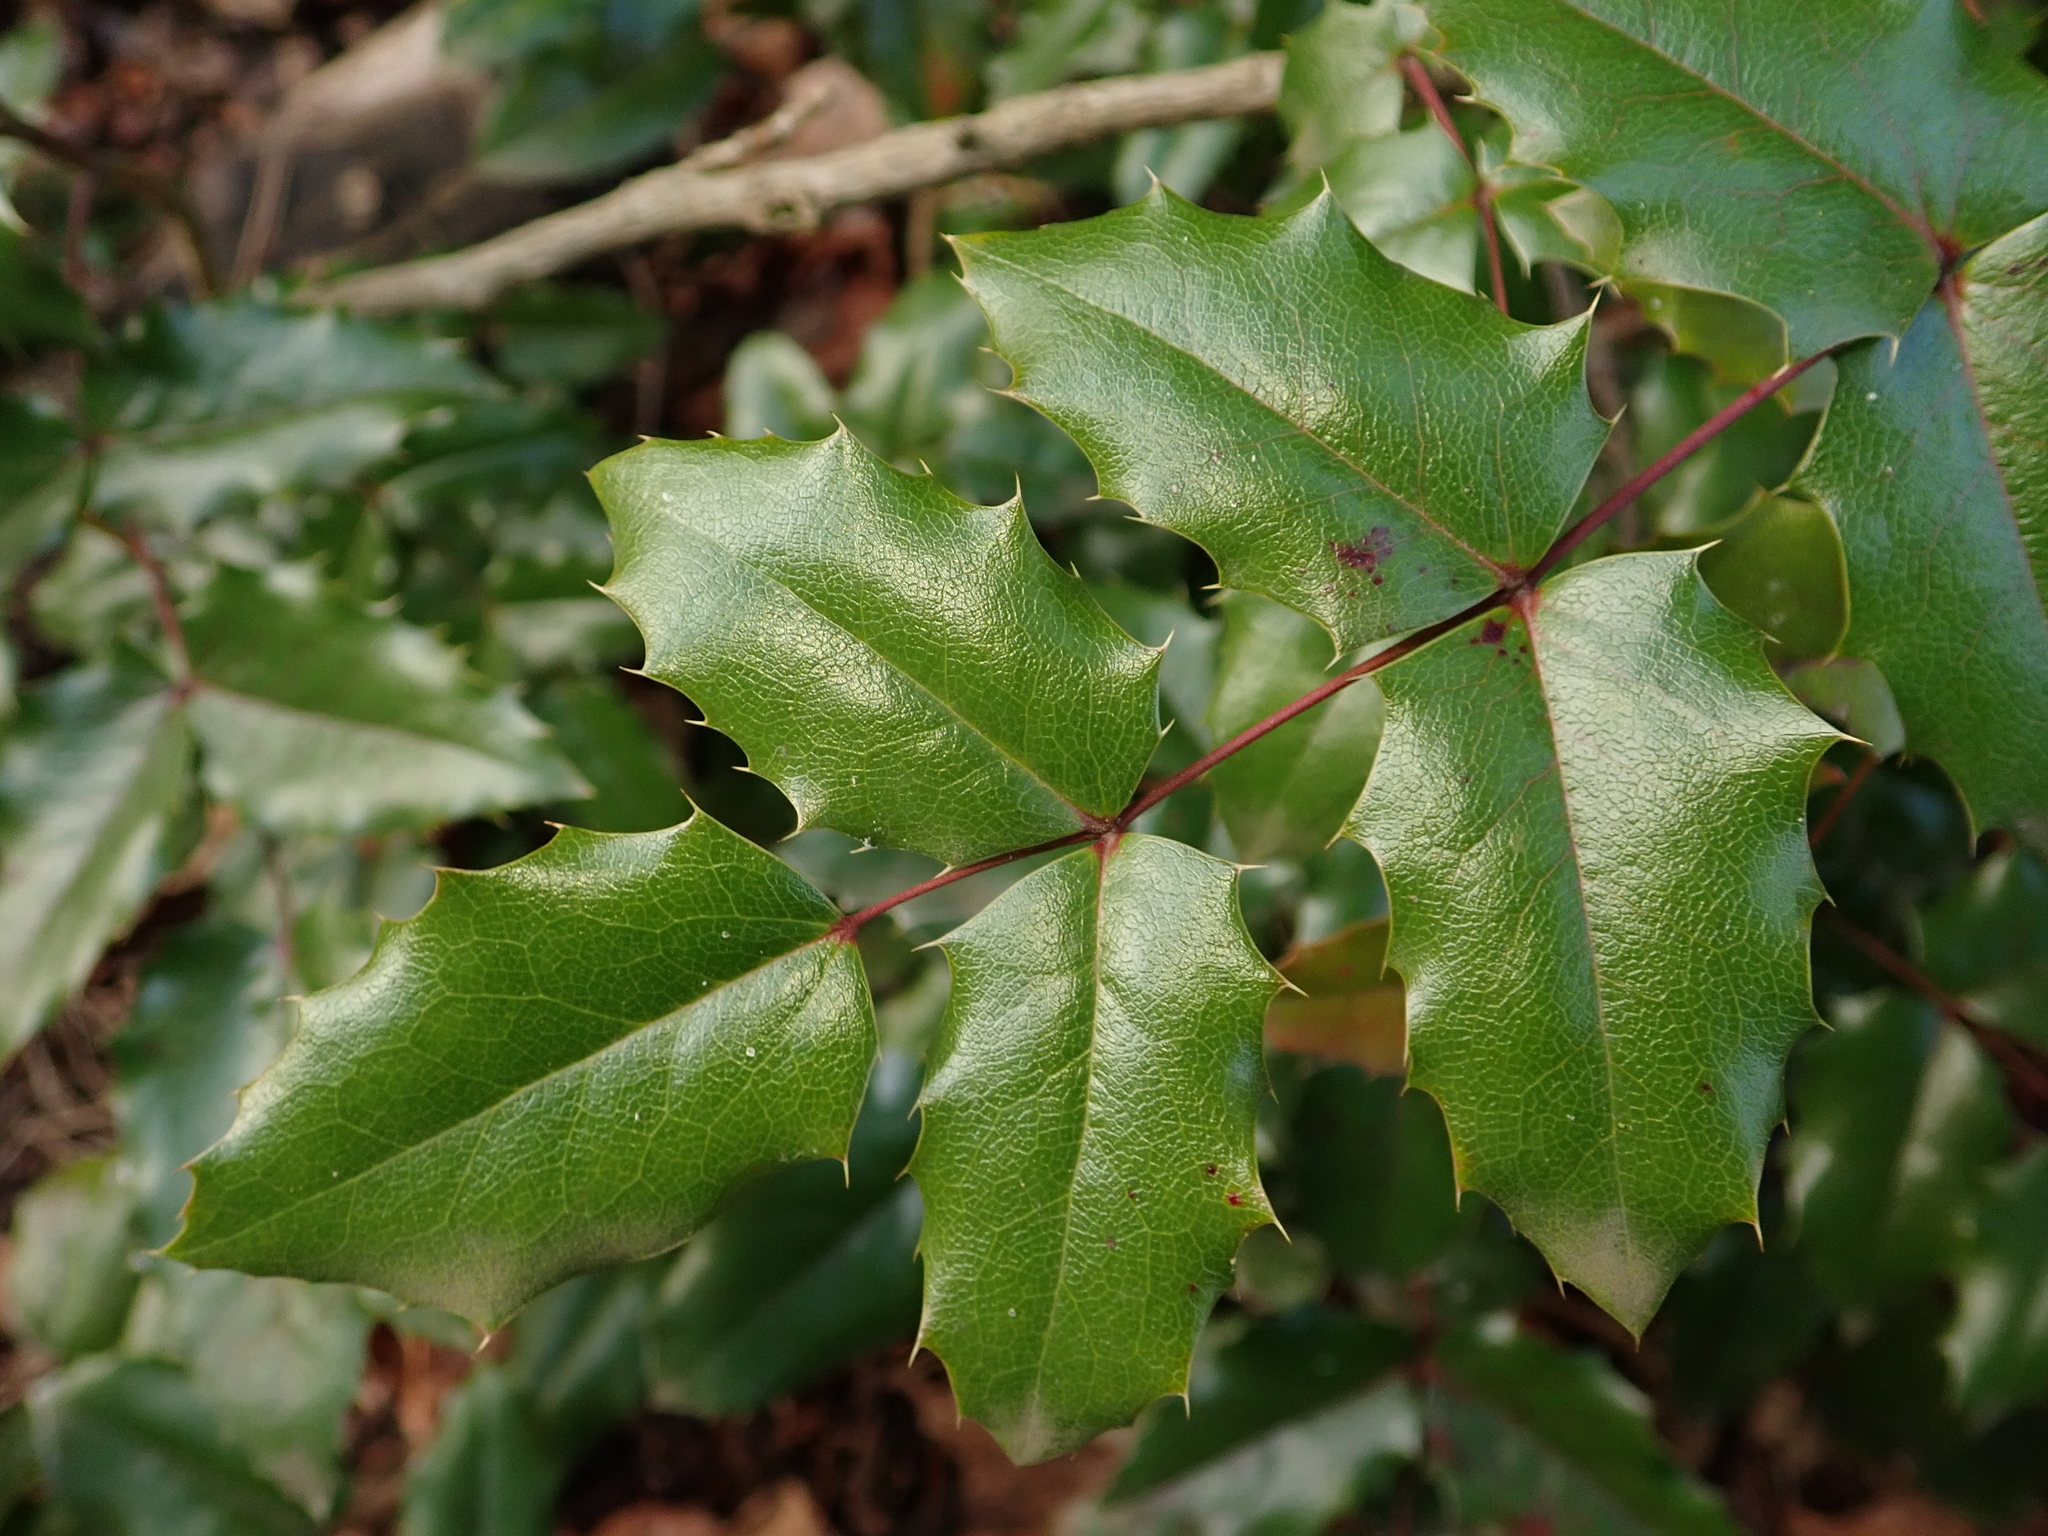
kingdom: Plantae
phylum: Tracheophyta
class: Magnoliopsida
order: Ranunculales
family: Berberidaceae
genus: Mahonia
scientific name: Mahonia aquifolium
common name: Oregon-grape
